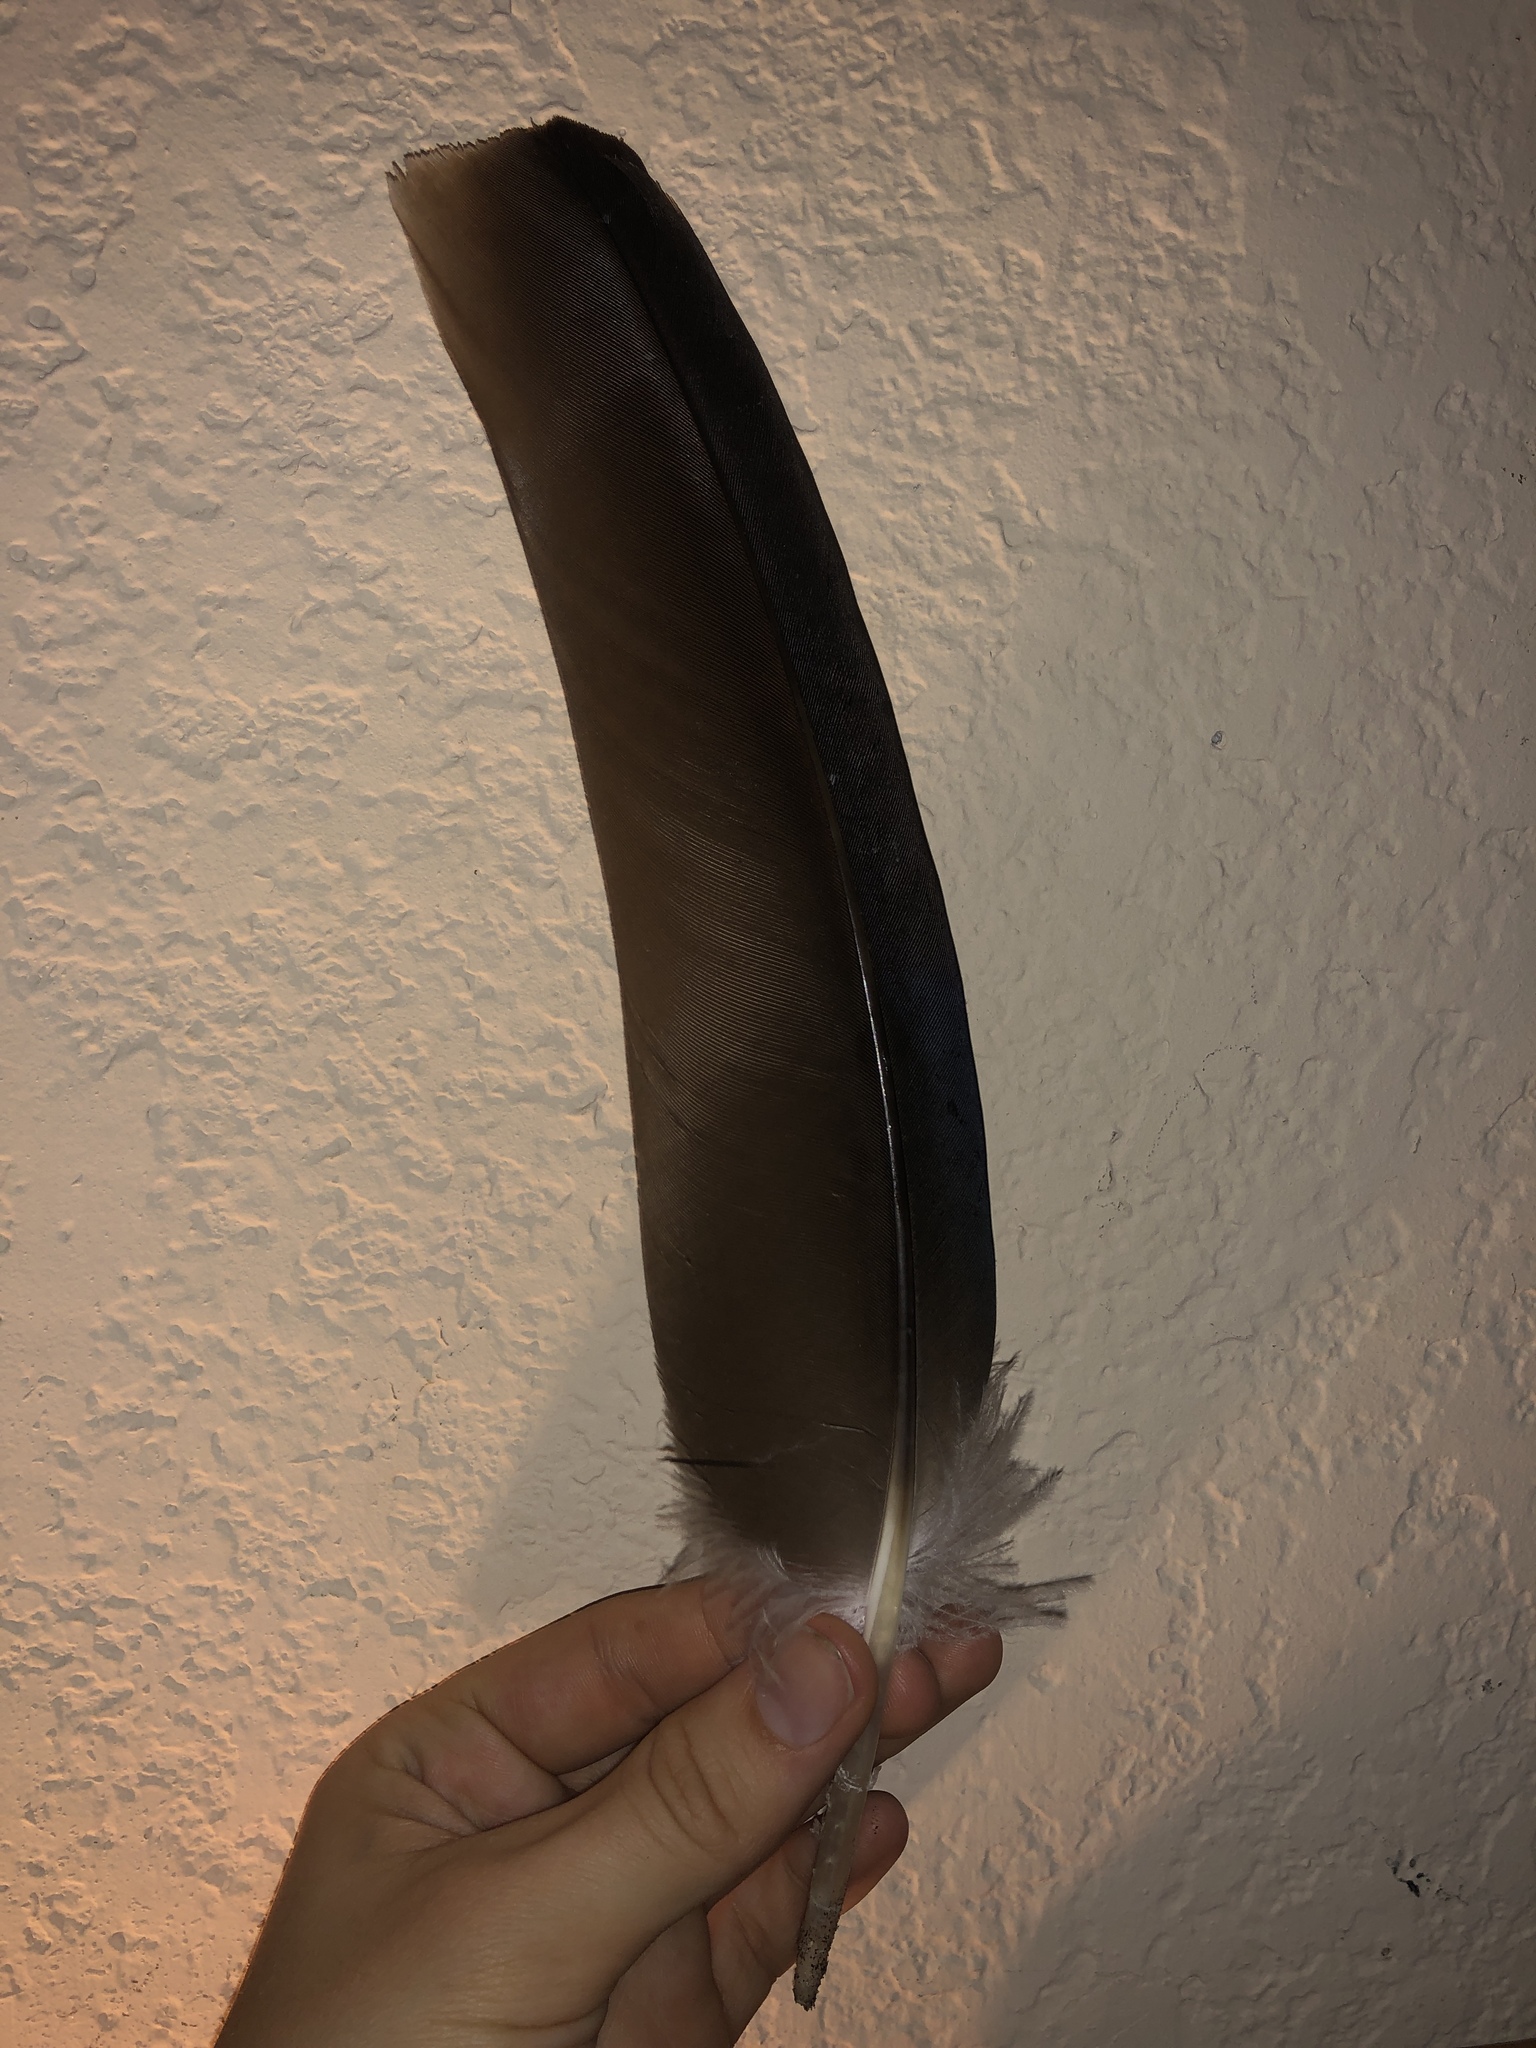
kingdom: Animalia
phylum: Chordata
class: Aves
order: Accipitriformes
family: Cathartidae
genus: Cathartes
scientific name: Cathartes aura
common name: Turkey vulture
